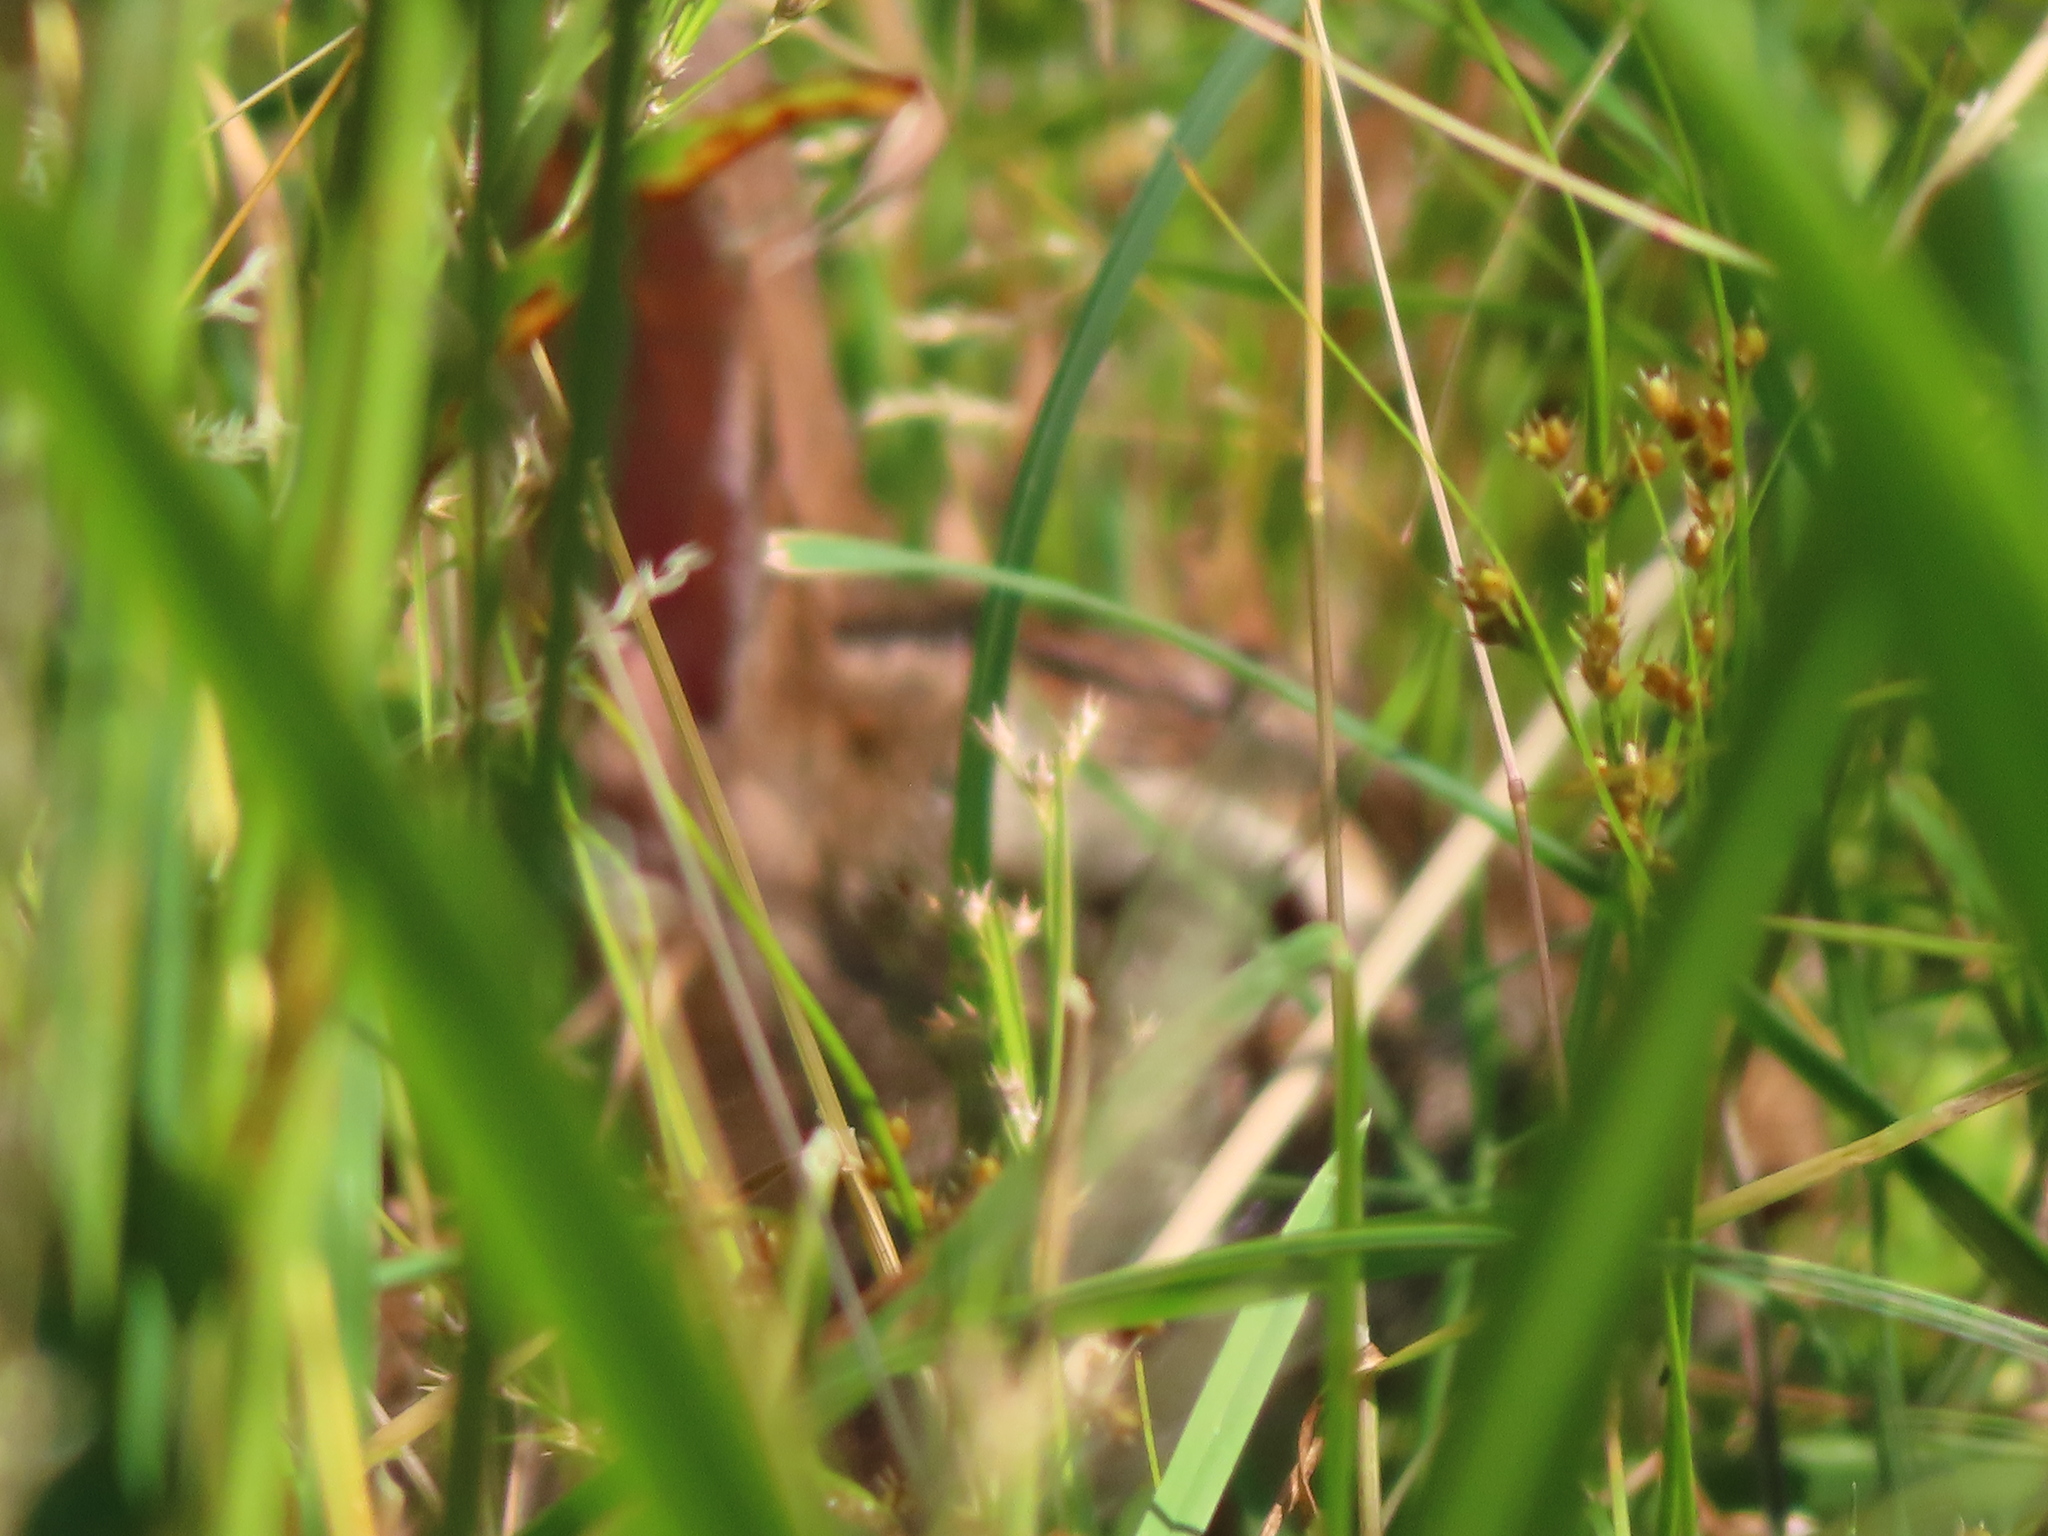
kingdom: Animalia
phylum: Chordata
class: Mammalia
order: Lagomorpha
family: Leporidae
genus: Sylvilagus
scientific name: Sylvilagus floridanus
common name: Eastern cottontail
